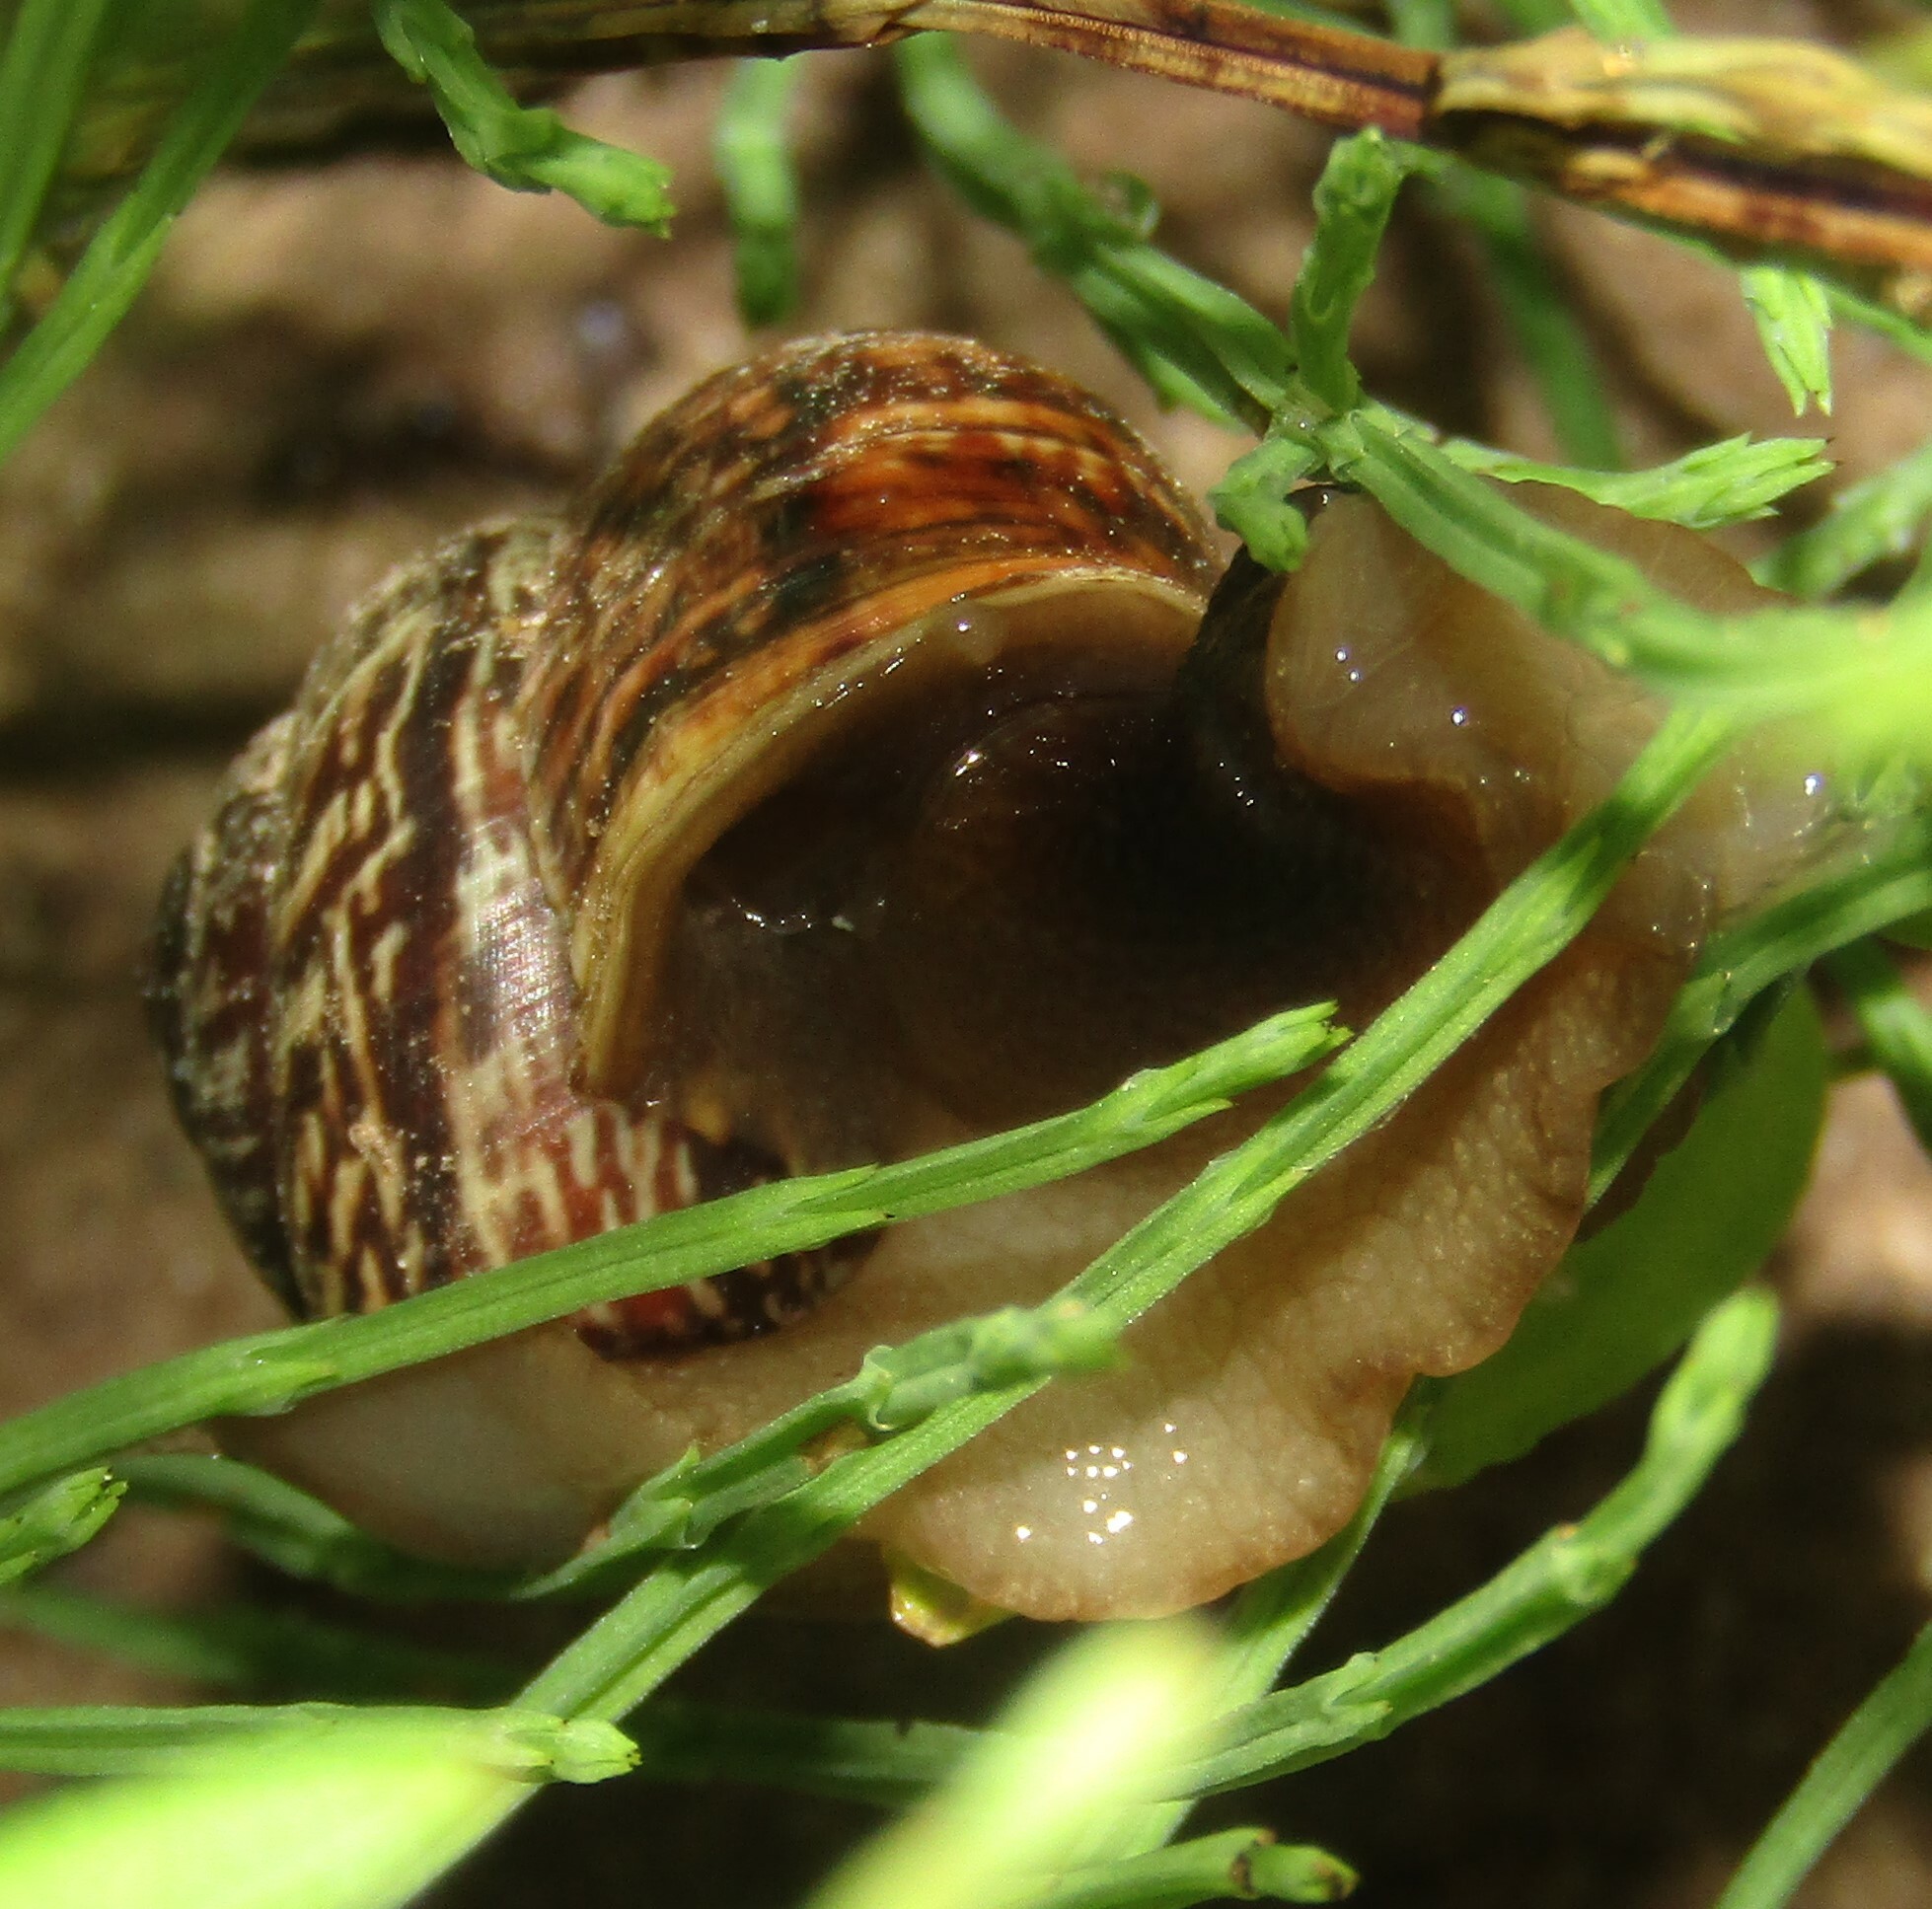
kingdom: Animalia
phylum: Mollusca
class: Gastropoda
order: Stylommatophora
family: Helicidae
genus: Arianta
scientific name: Arianta arbustorum
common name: Copse snail
